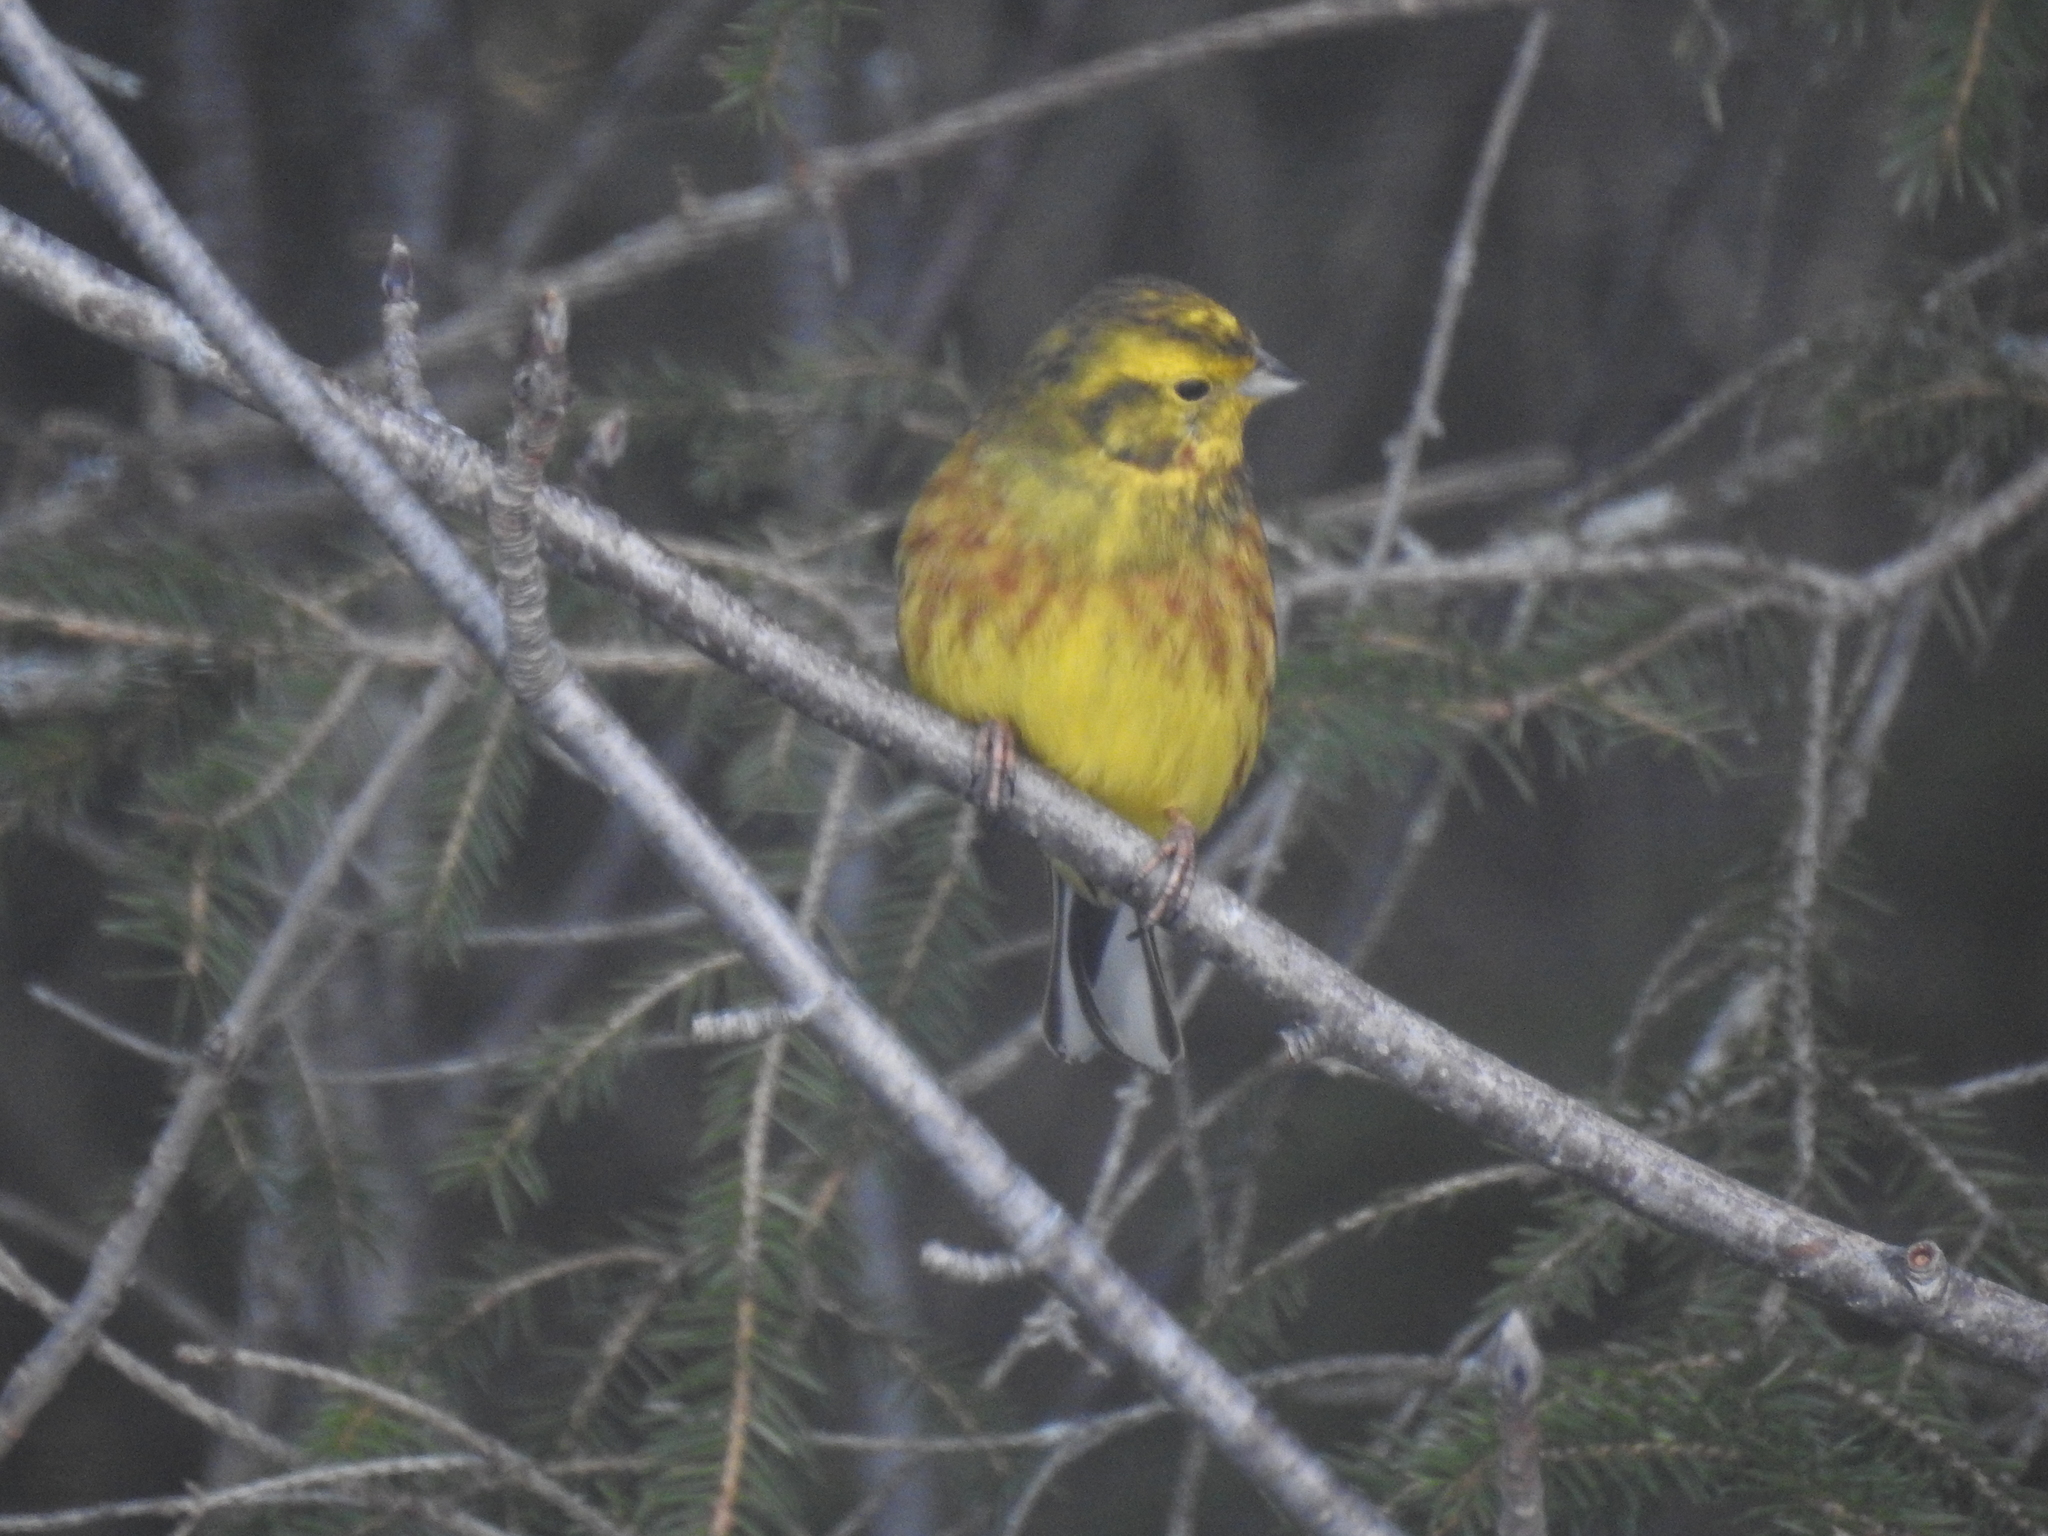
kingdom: Animalia
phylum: Chordata
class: Aves
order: Passeriformes
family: Emberizidae
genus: Emberiza
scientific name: Emberiza citrinella
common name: Yellowhammer
